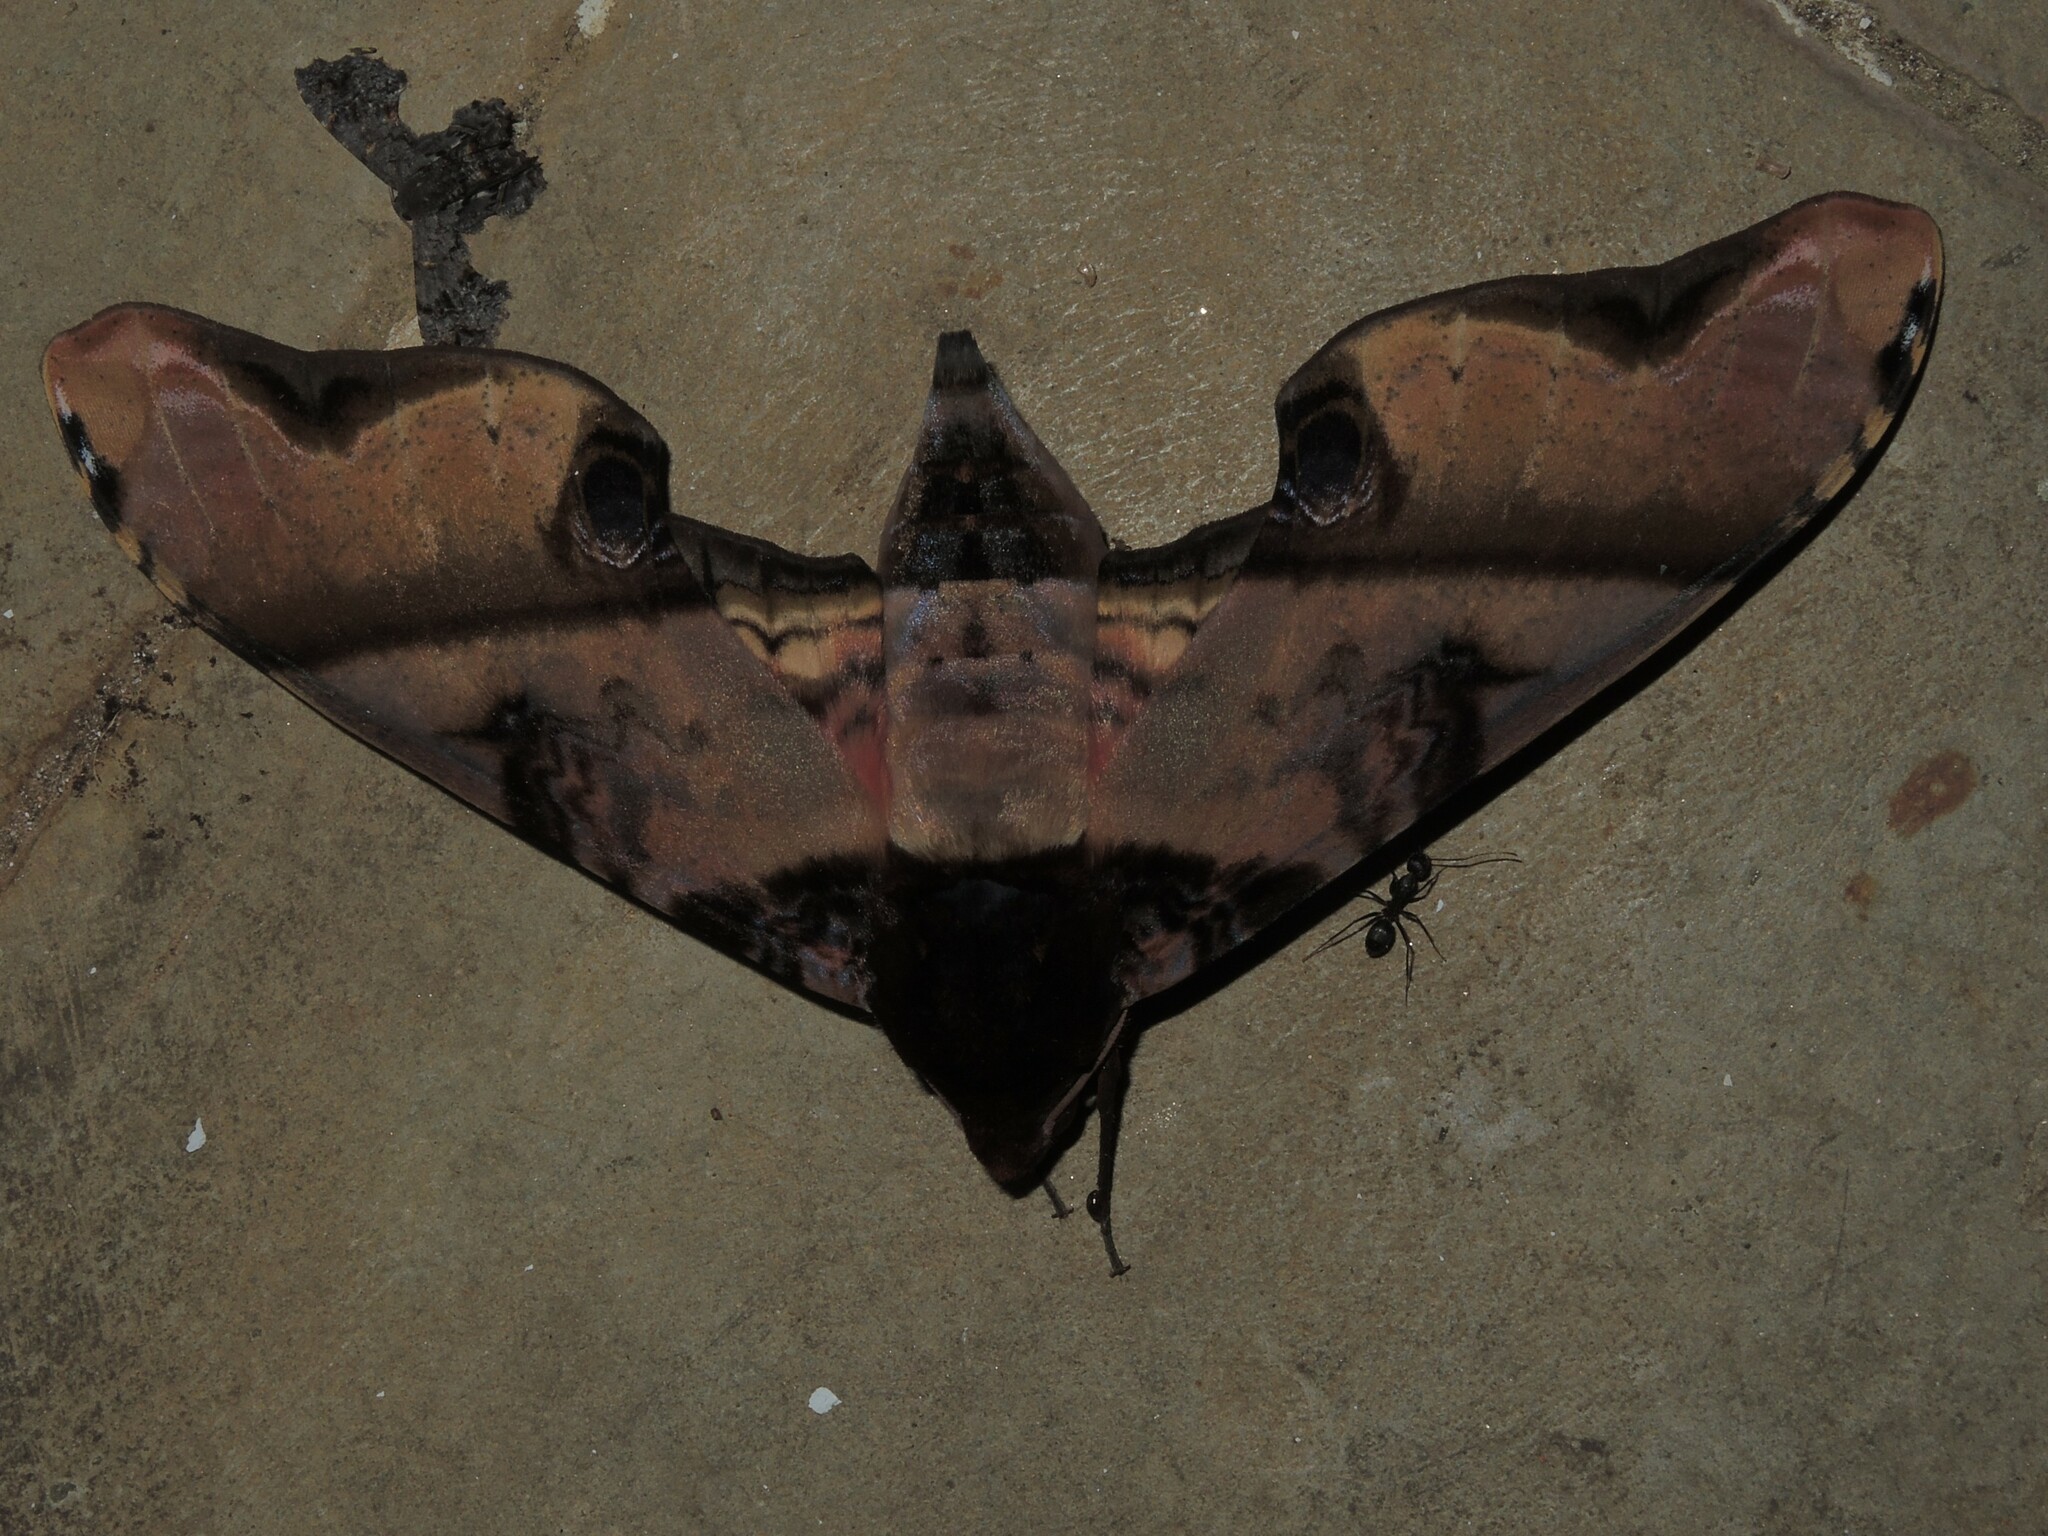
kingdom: Animalia
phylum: Arthropoda
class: Insecta
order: Lepidoptera
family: Sphingidae
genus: Amplypterus
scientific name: Amplypterus panopus
